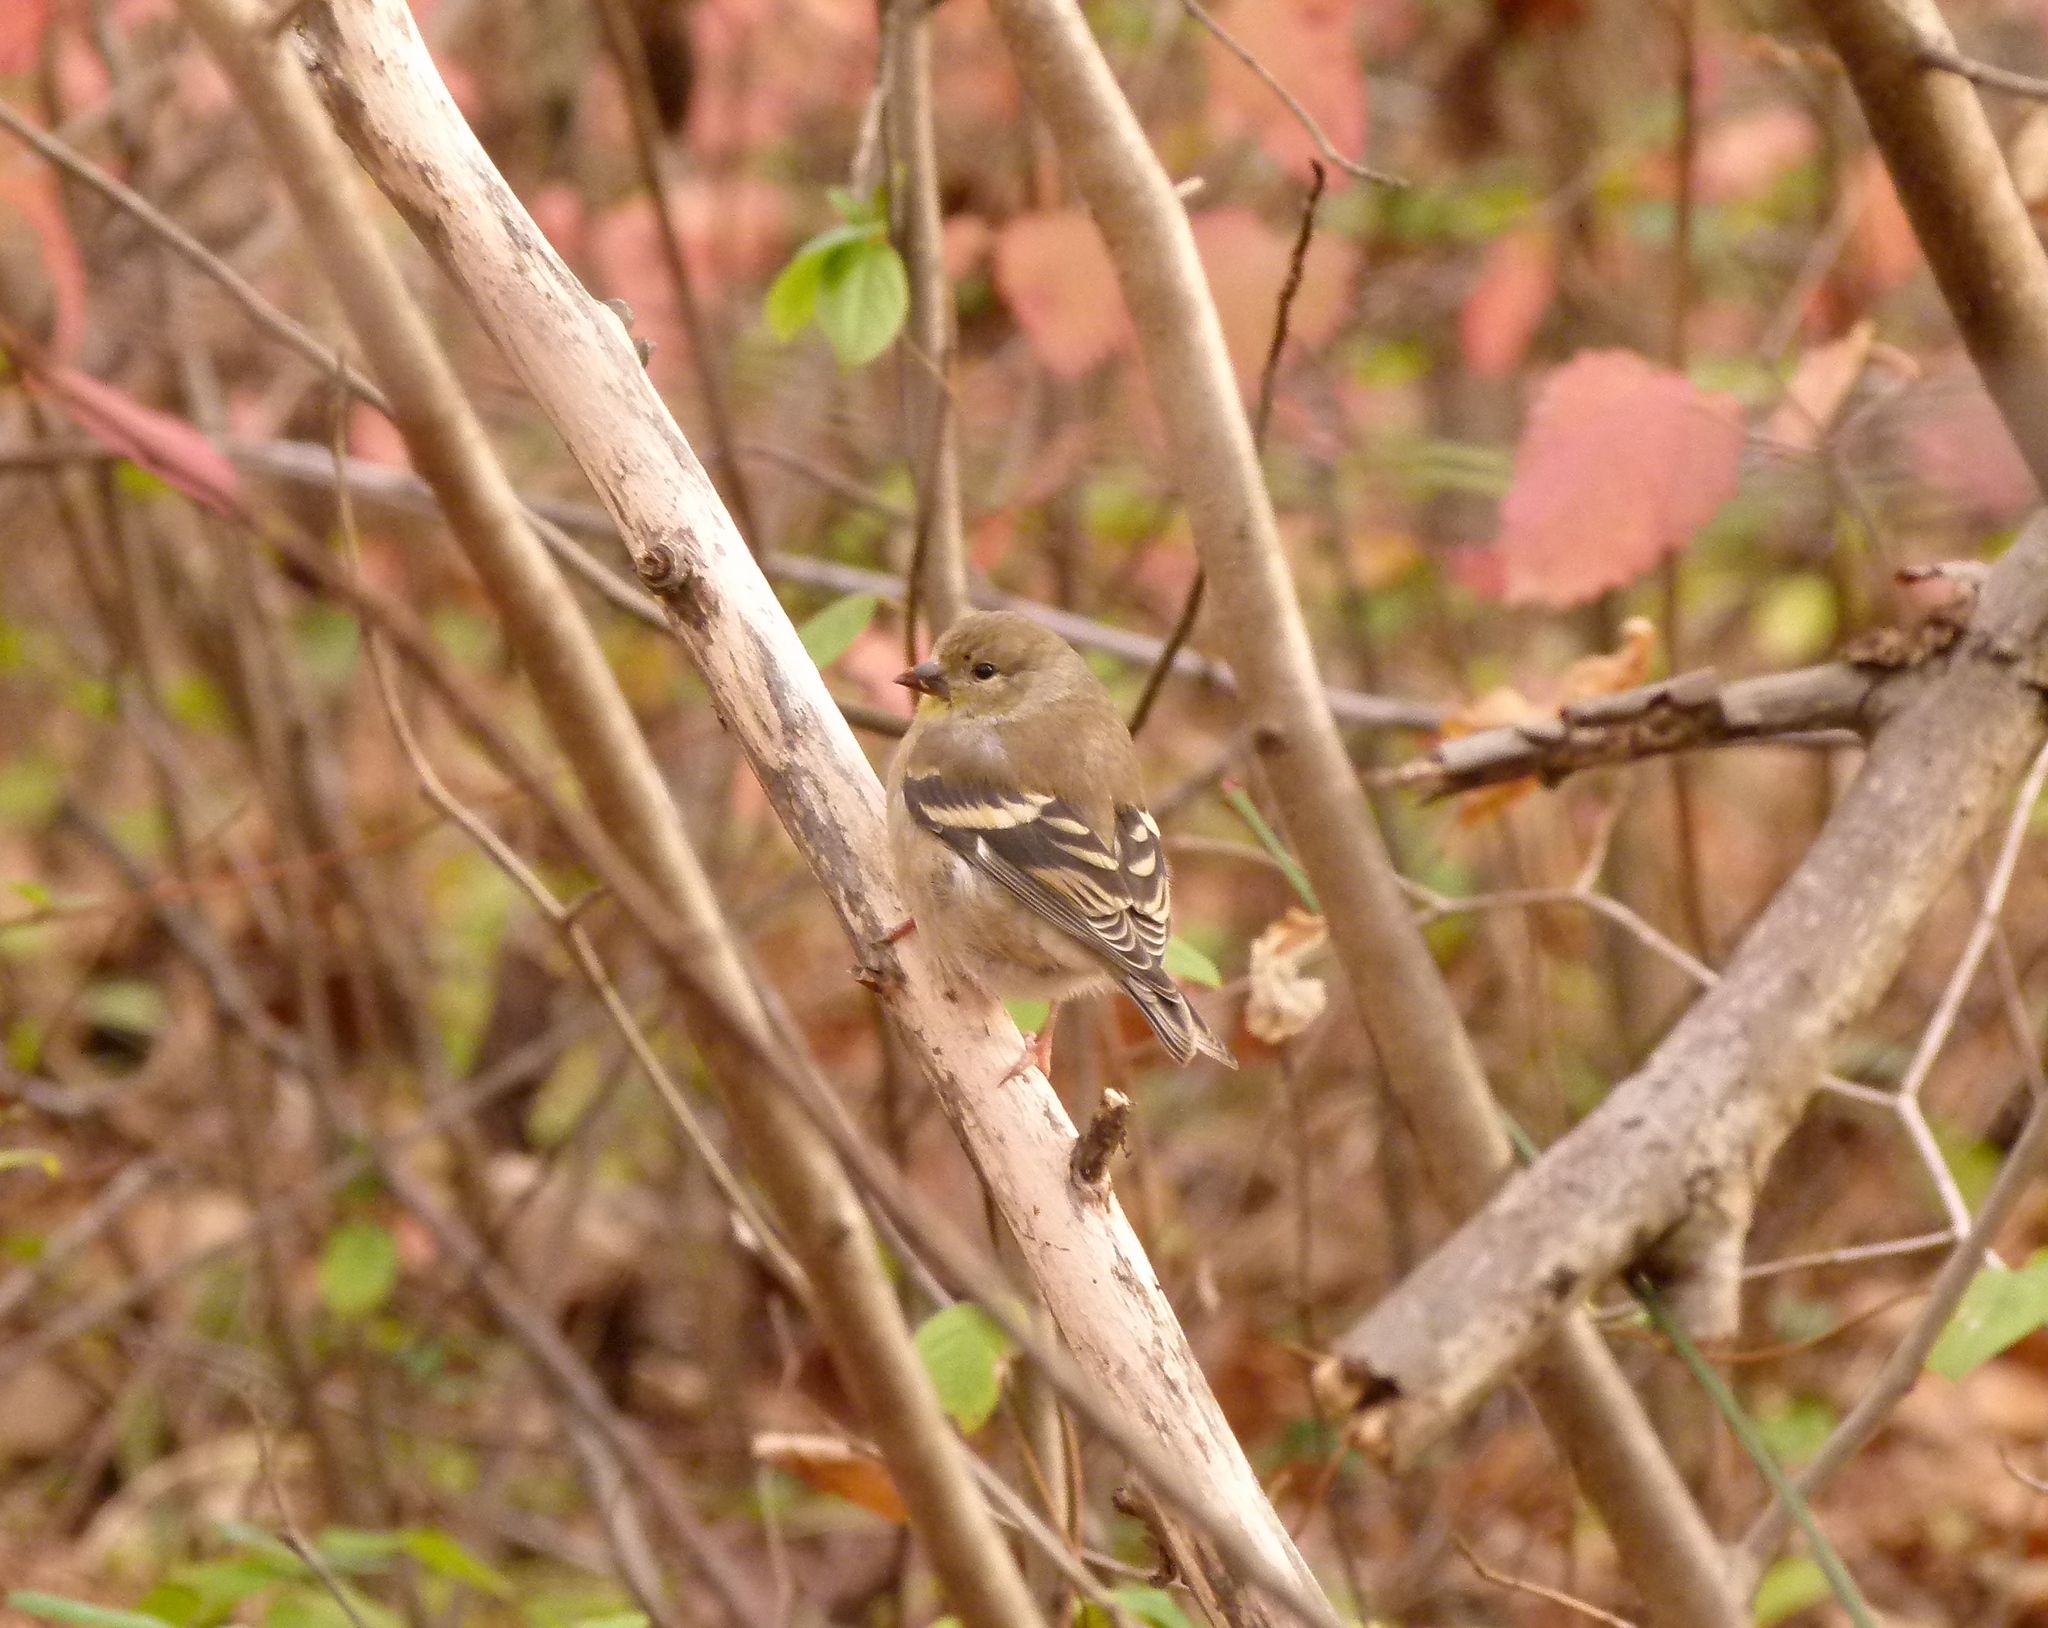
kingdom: Animalia
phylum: Chordata
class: Aves
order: Passeriformes
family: Fringillidae
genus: Spinus
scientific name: Spinus tristis
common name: American goldfinch
